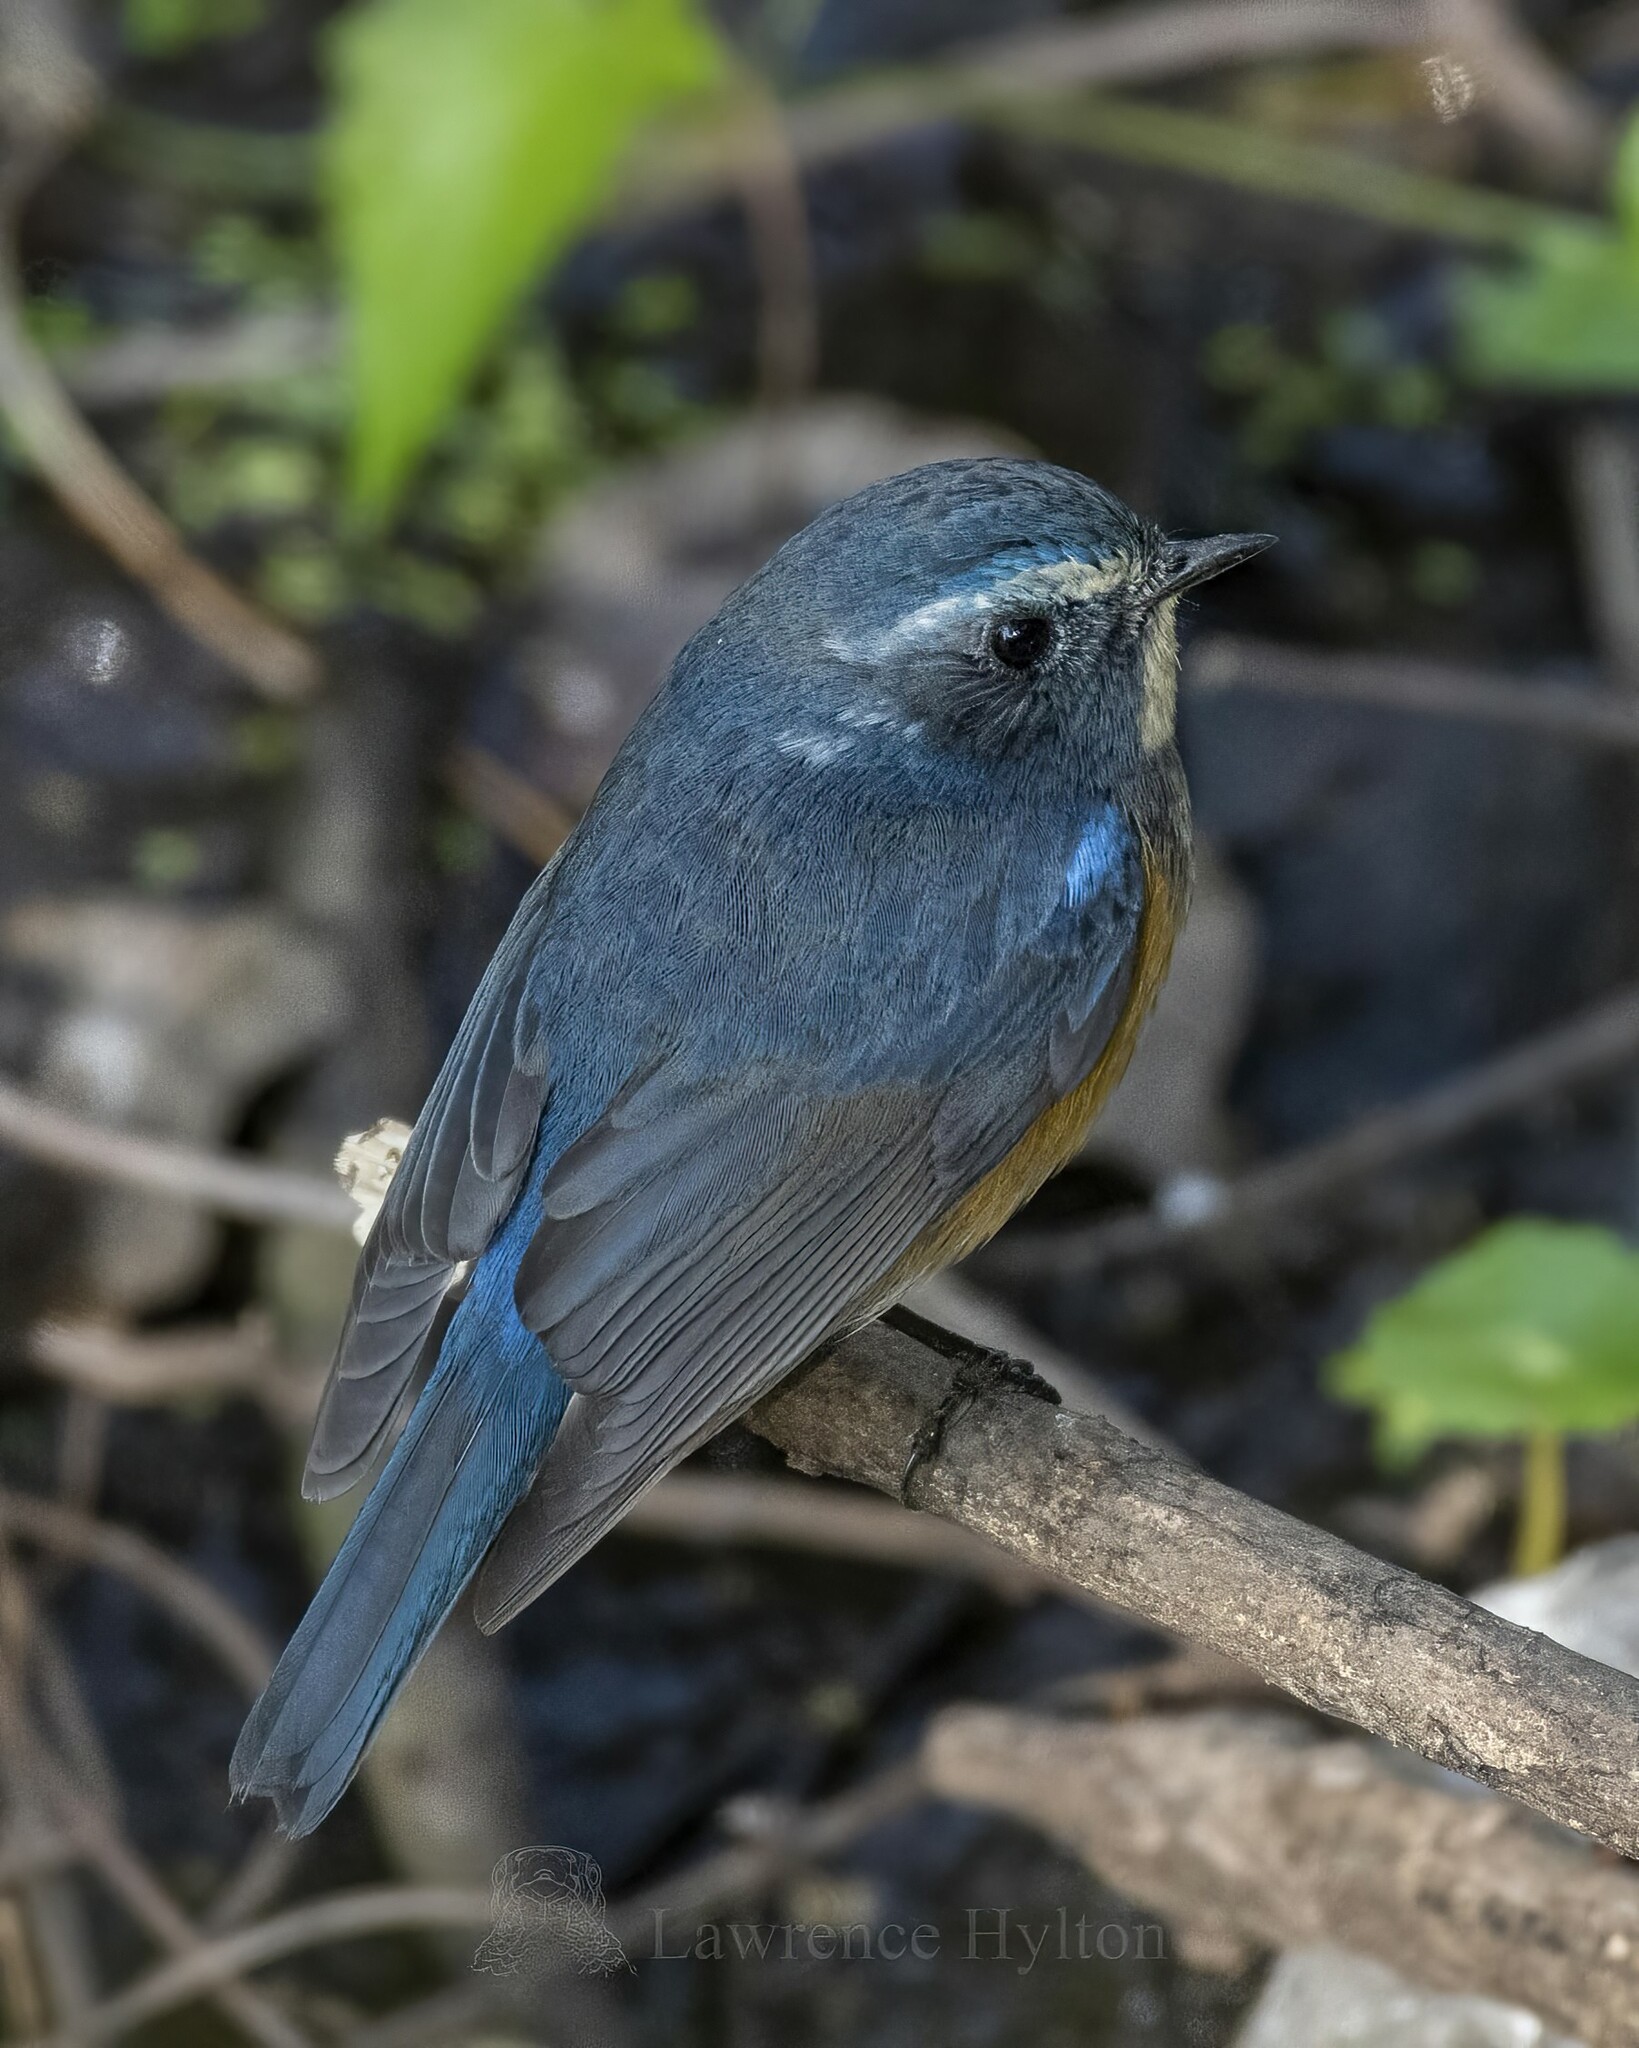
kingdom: Animalia
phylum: Chordata
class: Aves
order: Passeriformes
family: Muscicapidae
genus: Tarsiger
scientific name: Tarsiger cyanurus
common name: Red-flanked bluetail
